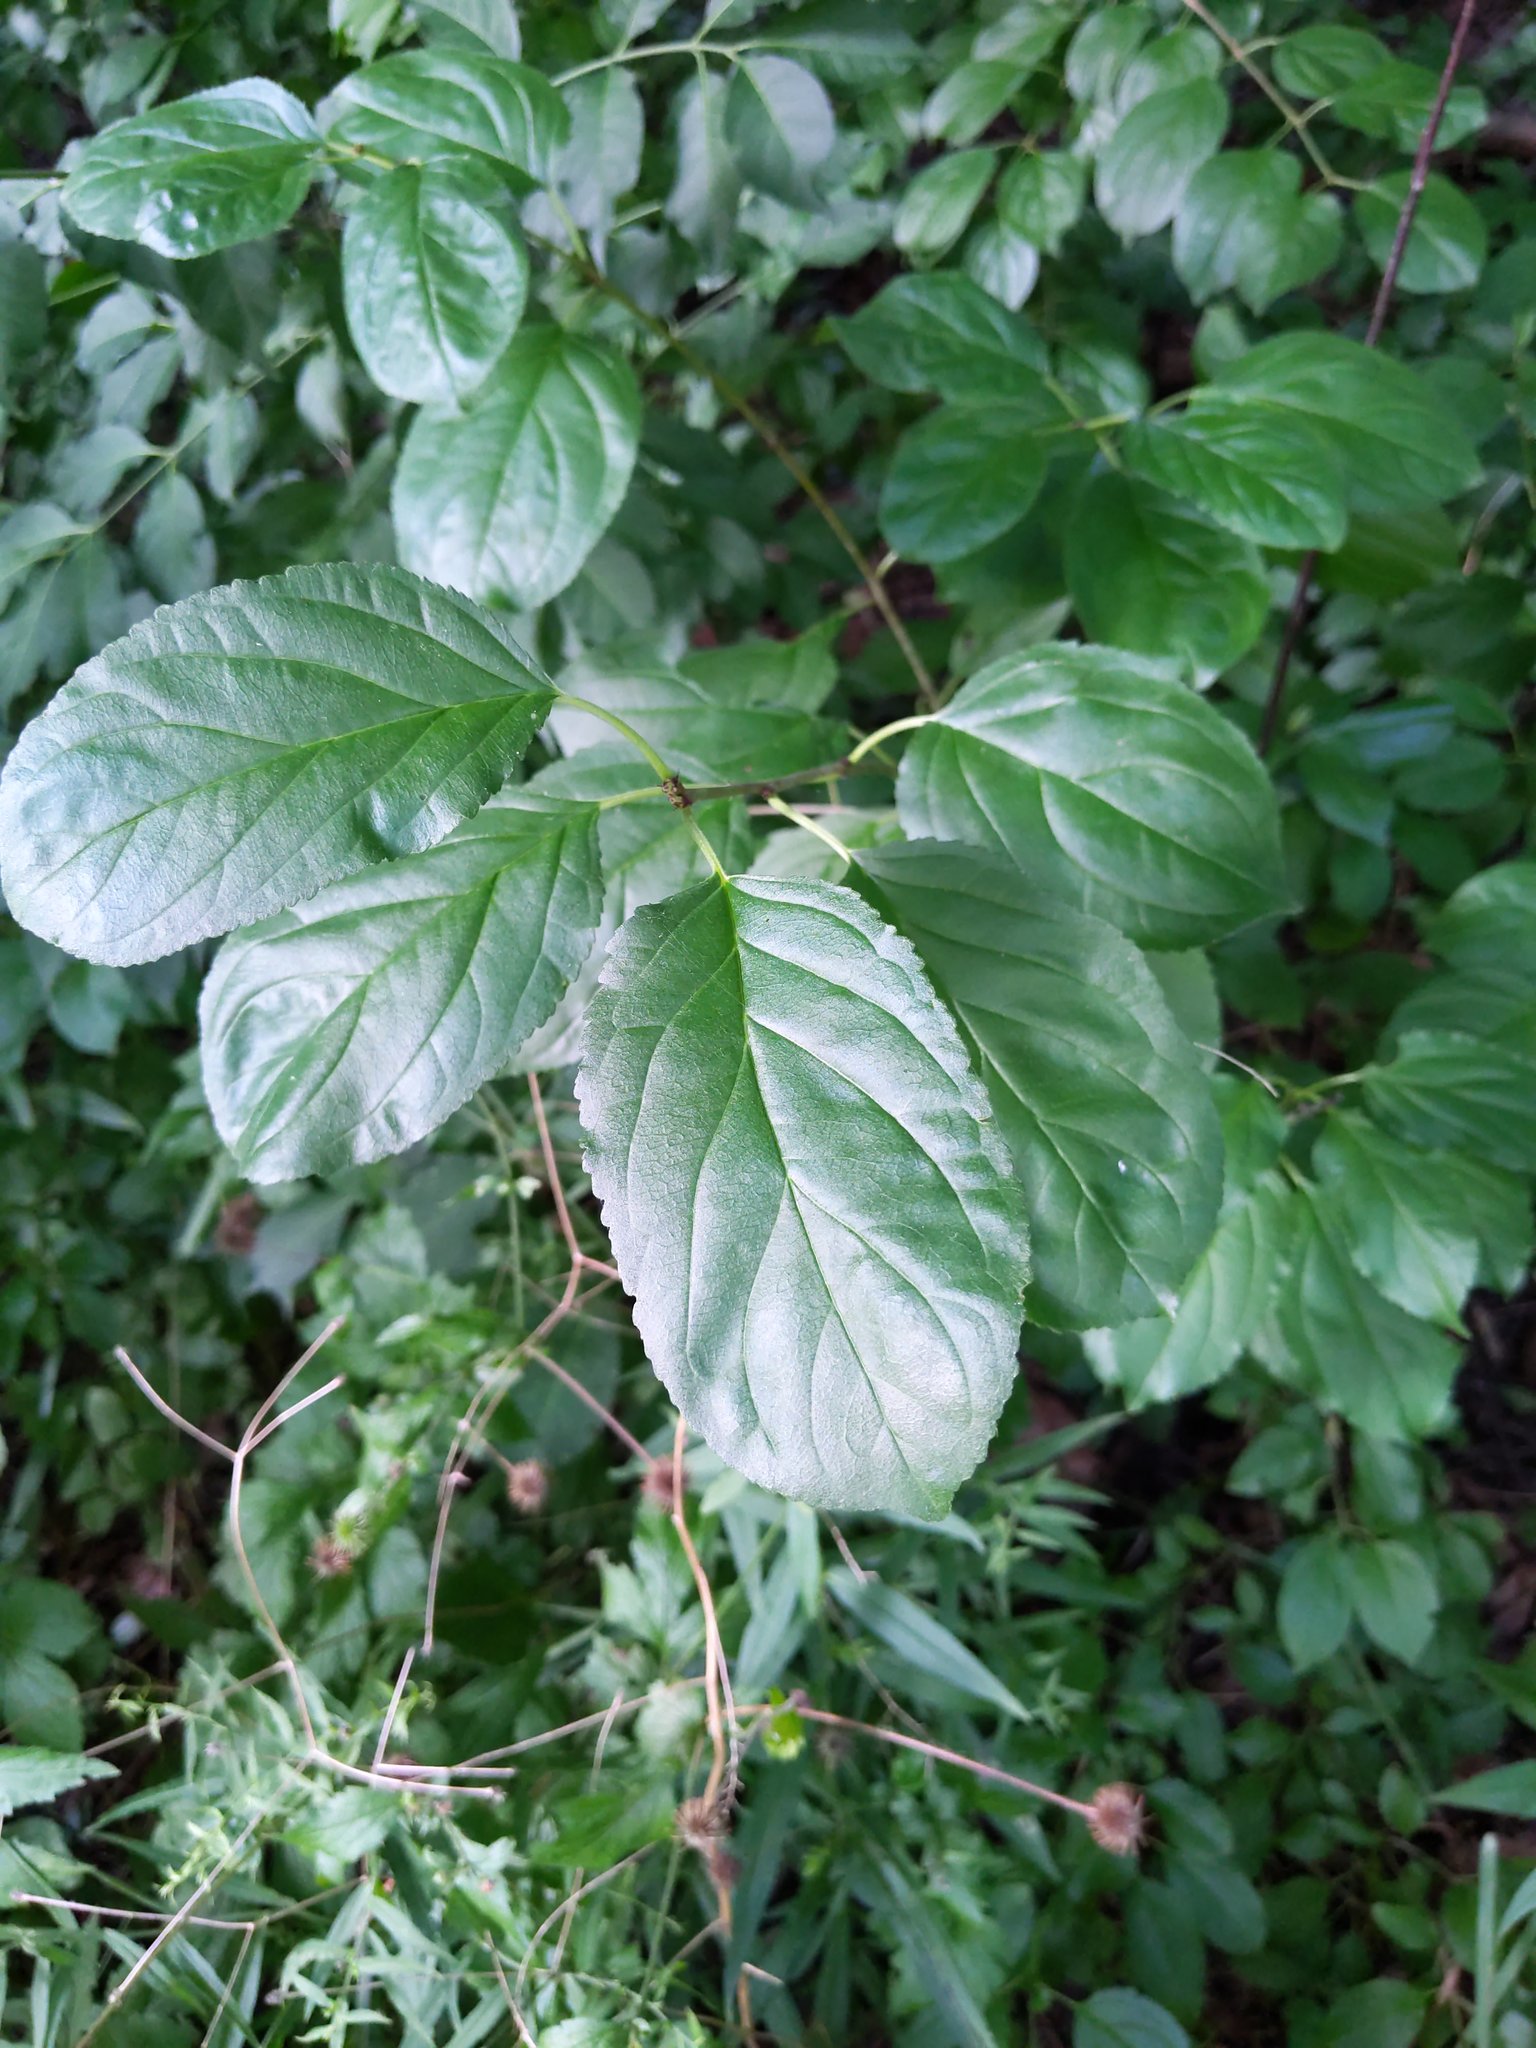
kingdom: Plantae
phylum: Tracheophyta
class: Magnoliopsida
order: Rosales
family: Rhamnaceae
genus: Rhamnus
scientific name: Rhamnus cathartica
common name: Common buckthorn
